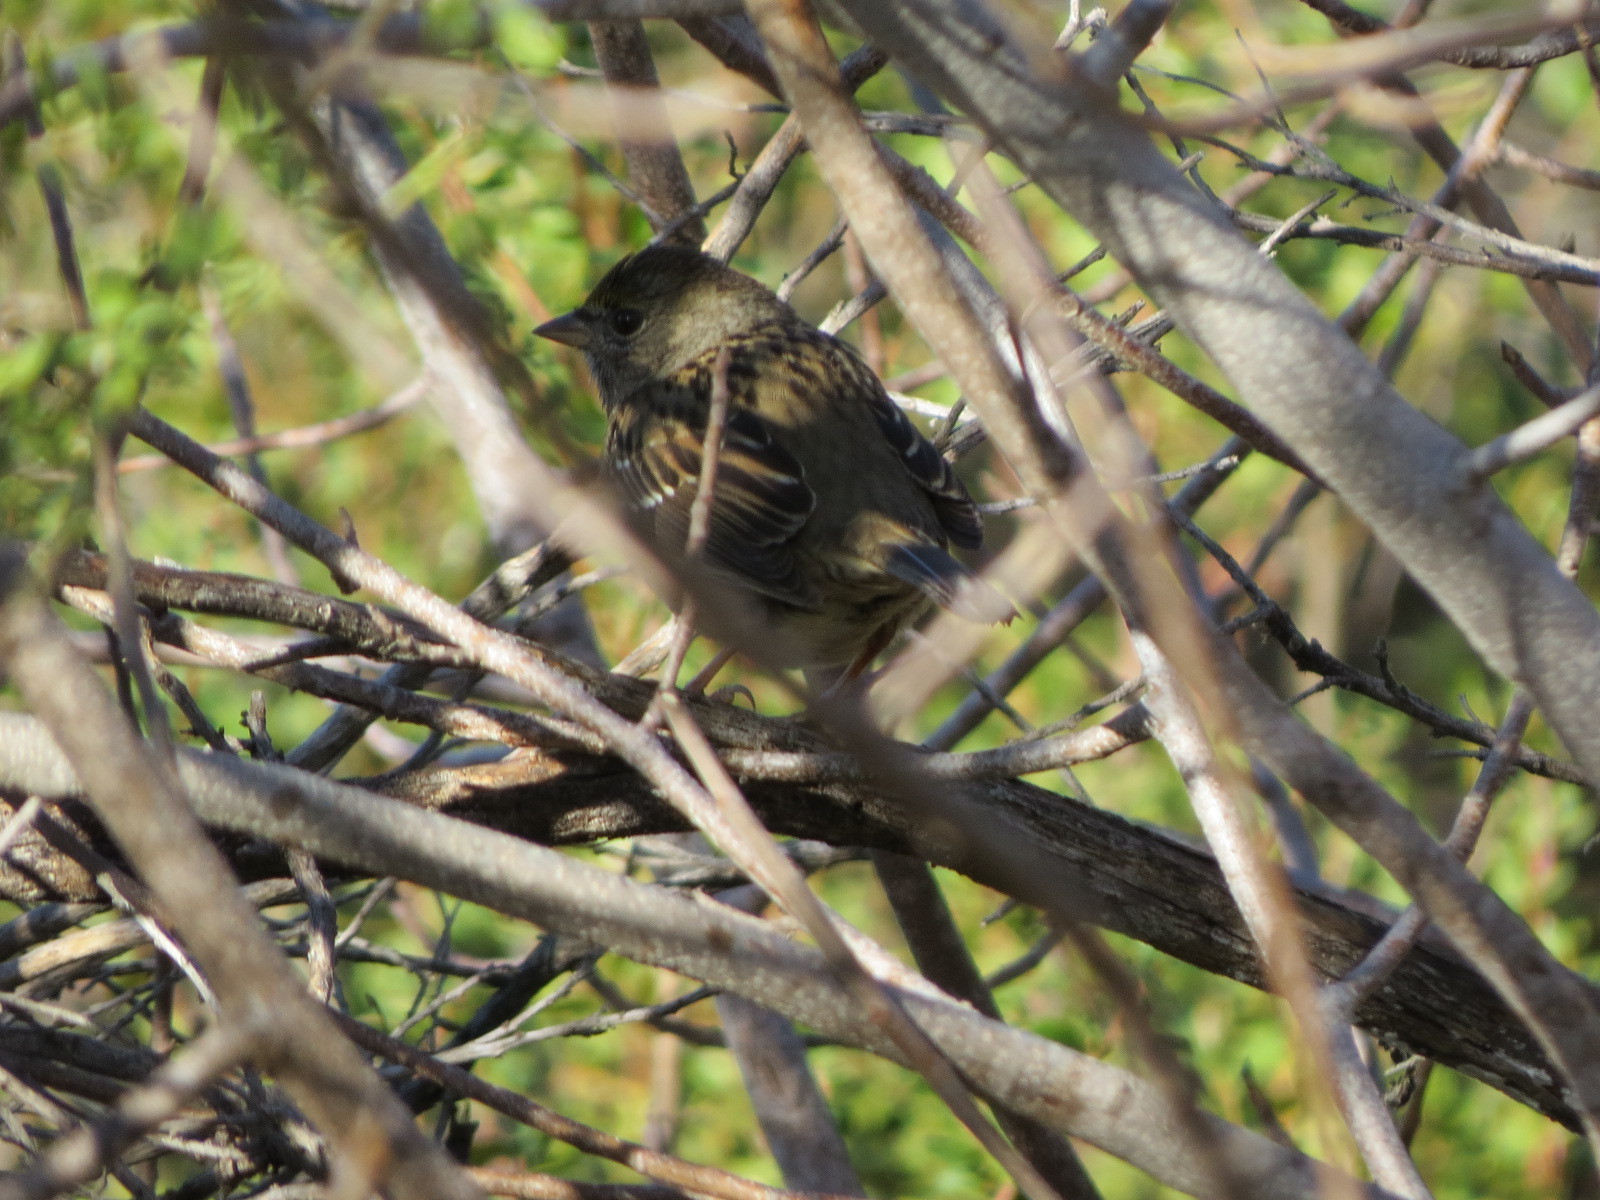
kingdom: Animalia
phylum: Chordata
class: Aves
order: Passeriformes
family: Passerellidae
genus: Zonotrichia
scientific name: Zonotrichia atricapilla
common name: Golden-crowned sparrow
